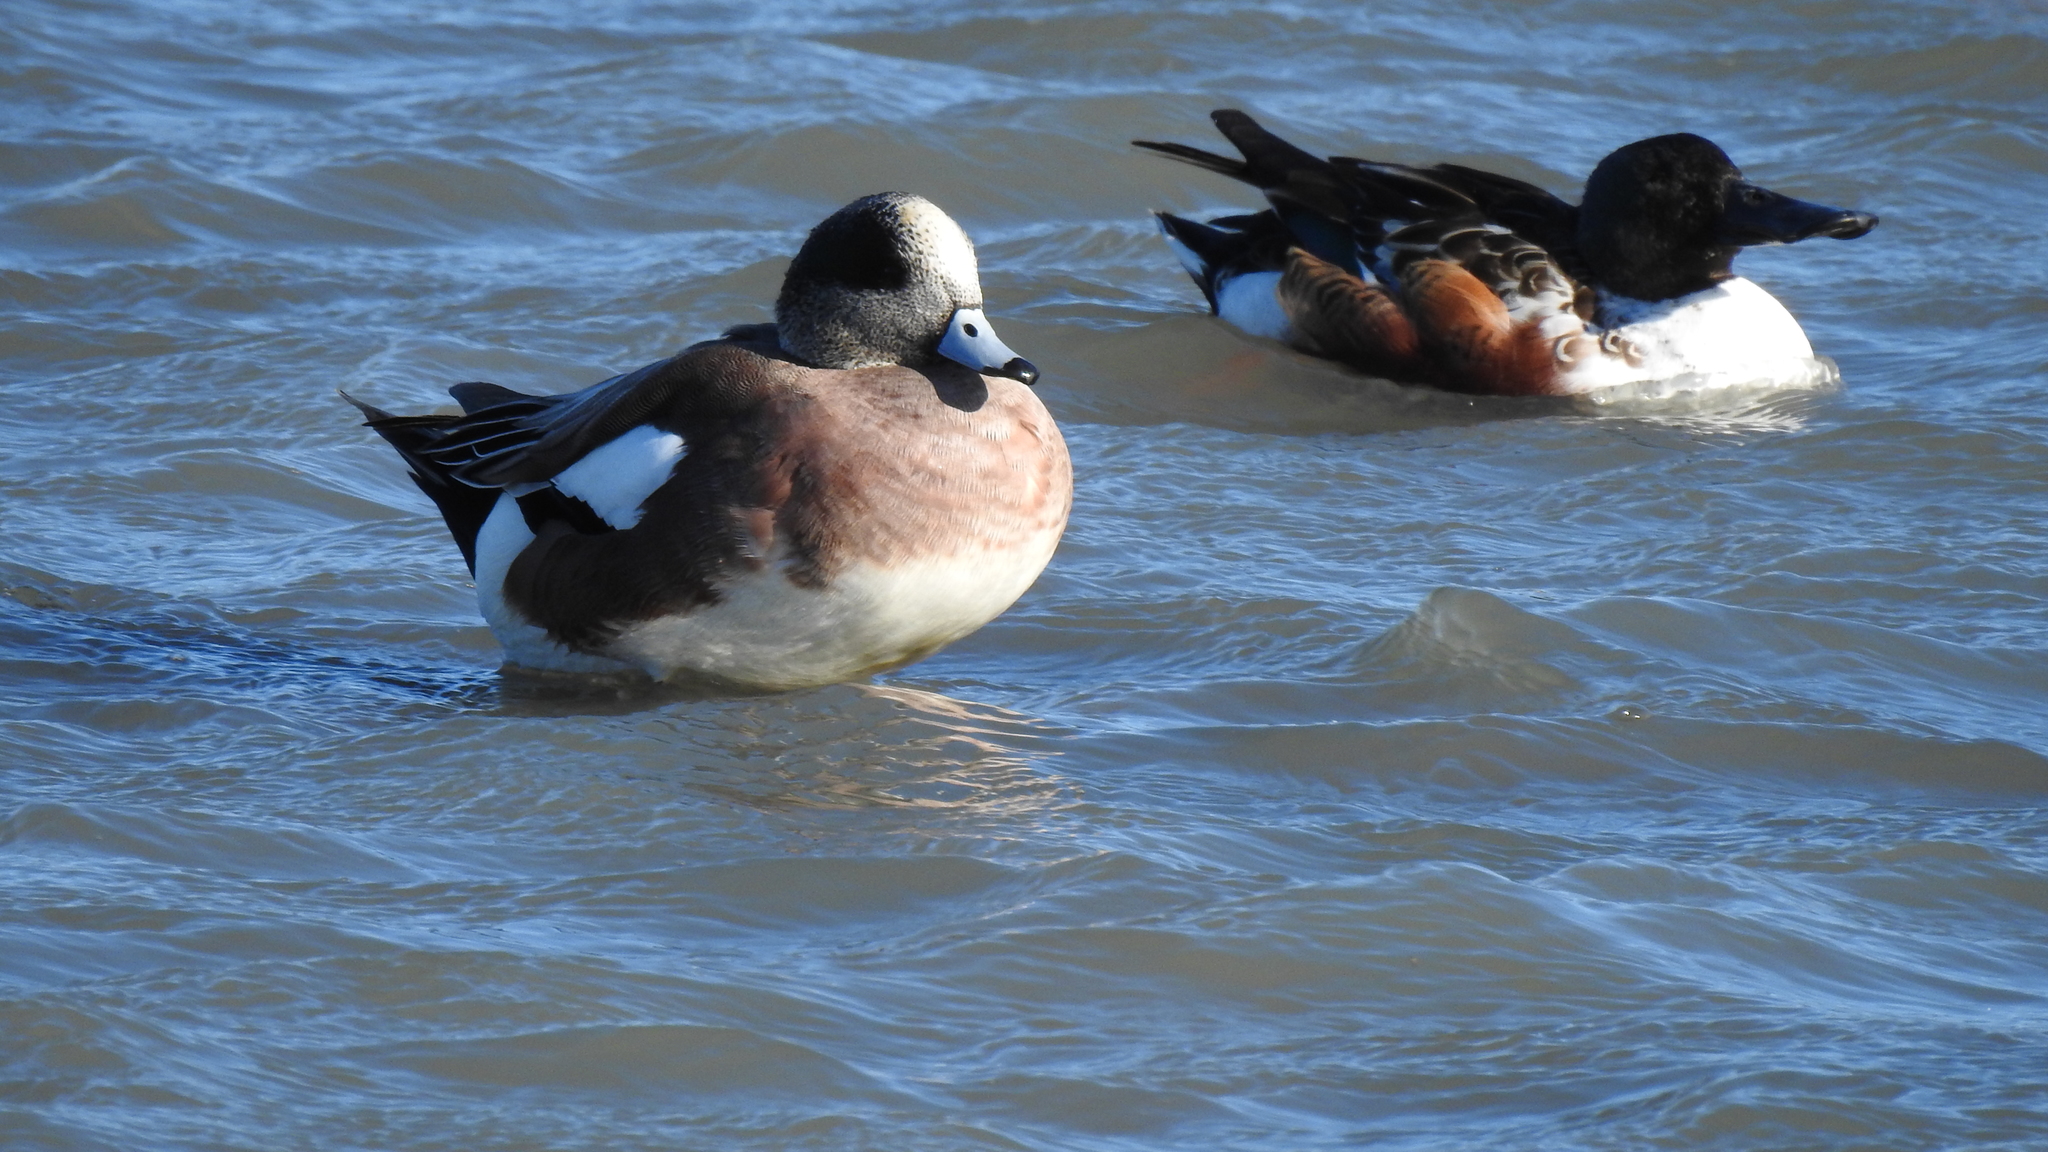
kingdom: Animalia
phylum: Chordata
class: Aves
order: Anseriformes
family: Anatidae
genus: Spatula
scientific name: Spatula clypeata
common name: Northern shoveler
